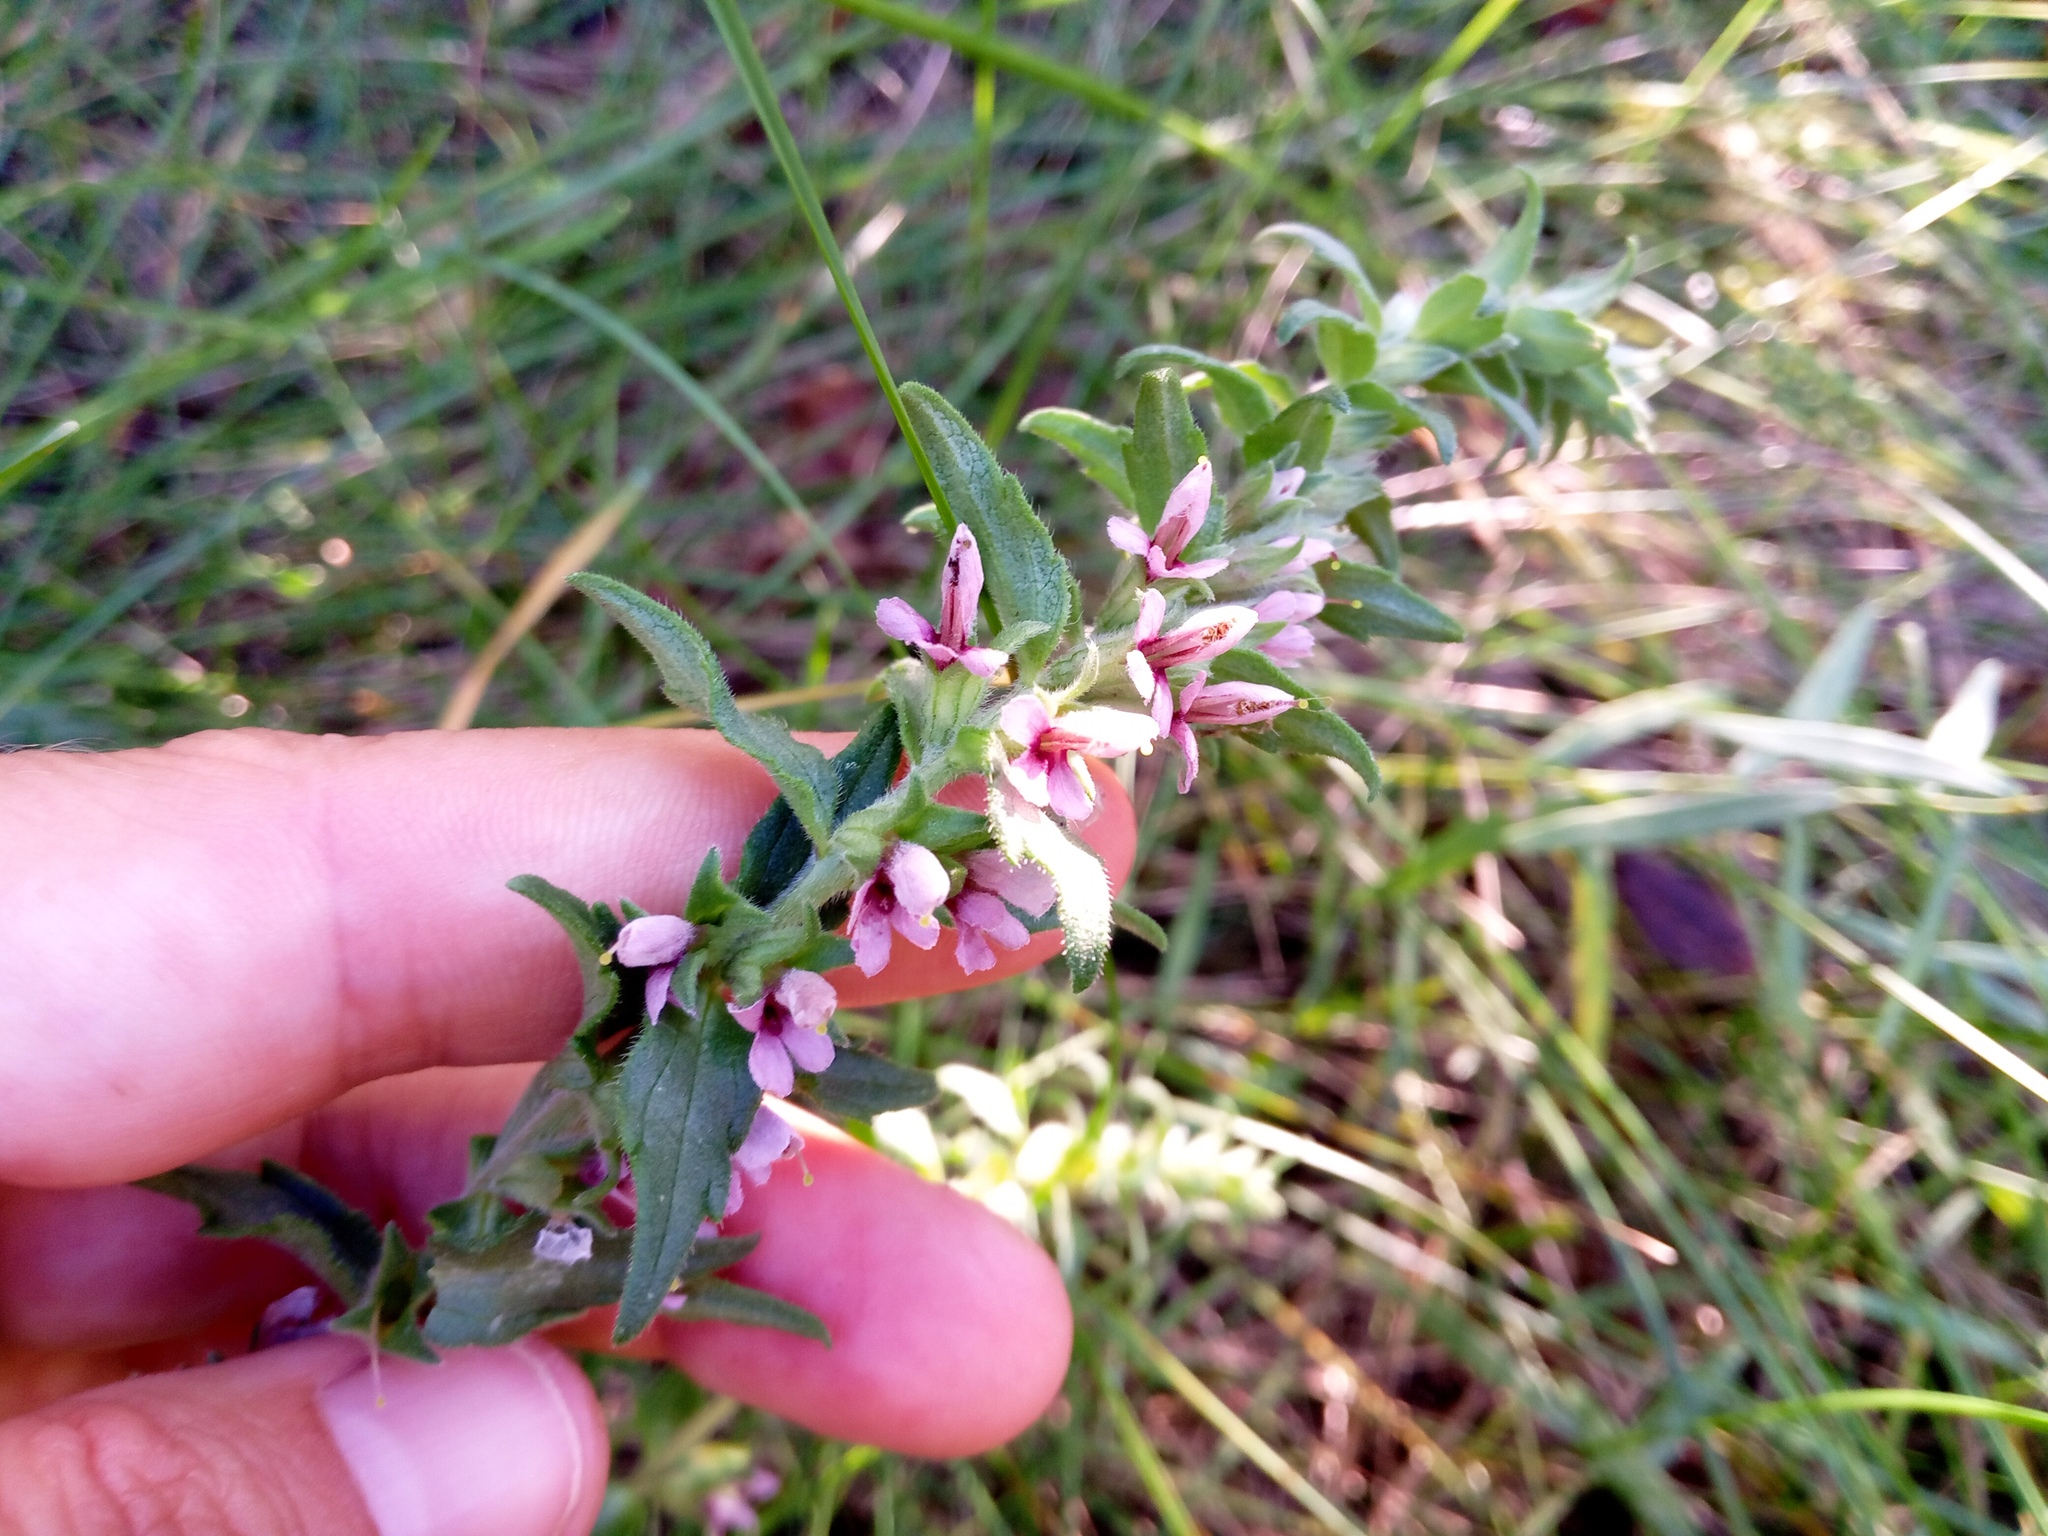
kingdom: Plantae
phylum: Tracheophyta
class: Magnoliopsida
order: Lamiales
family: Orobanchaceae
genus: Odontites
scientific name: Odontites vulgaris
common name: Broomrape
